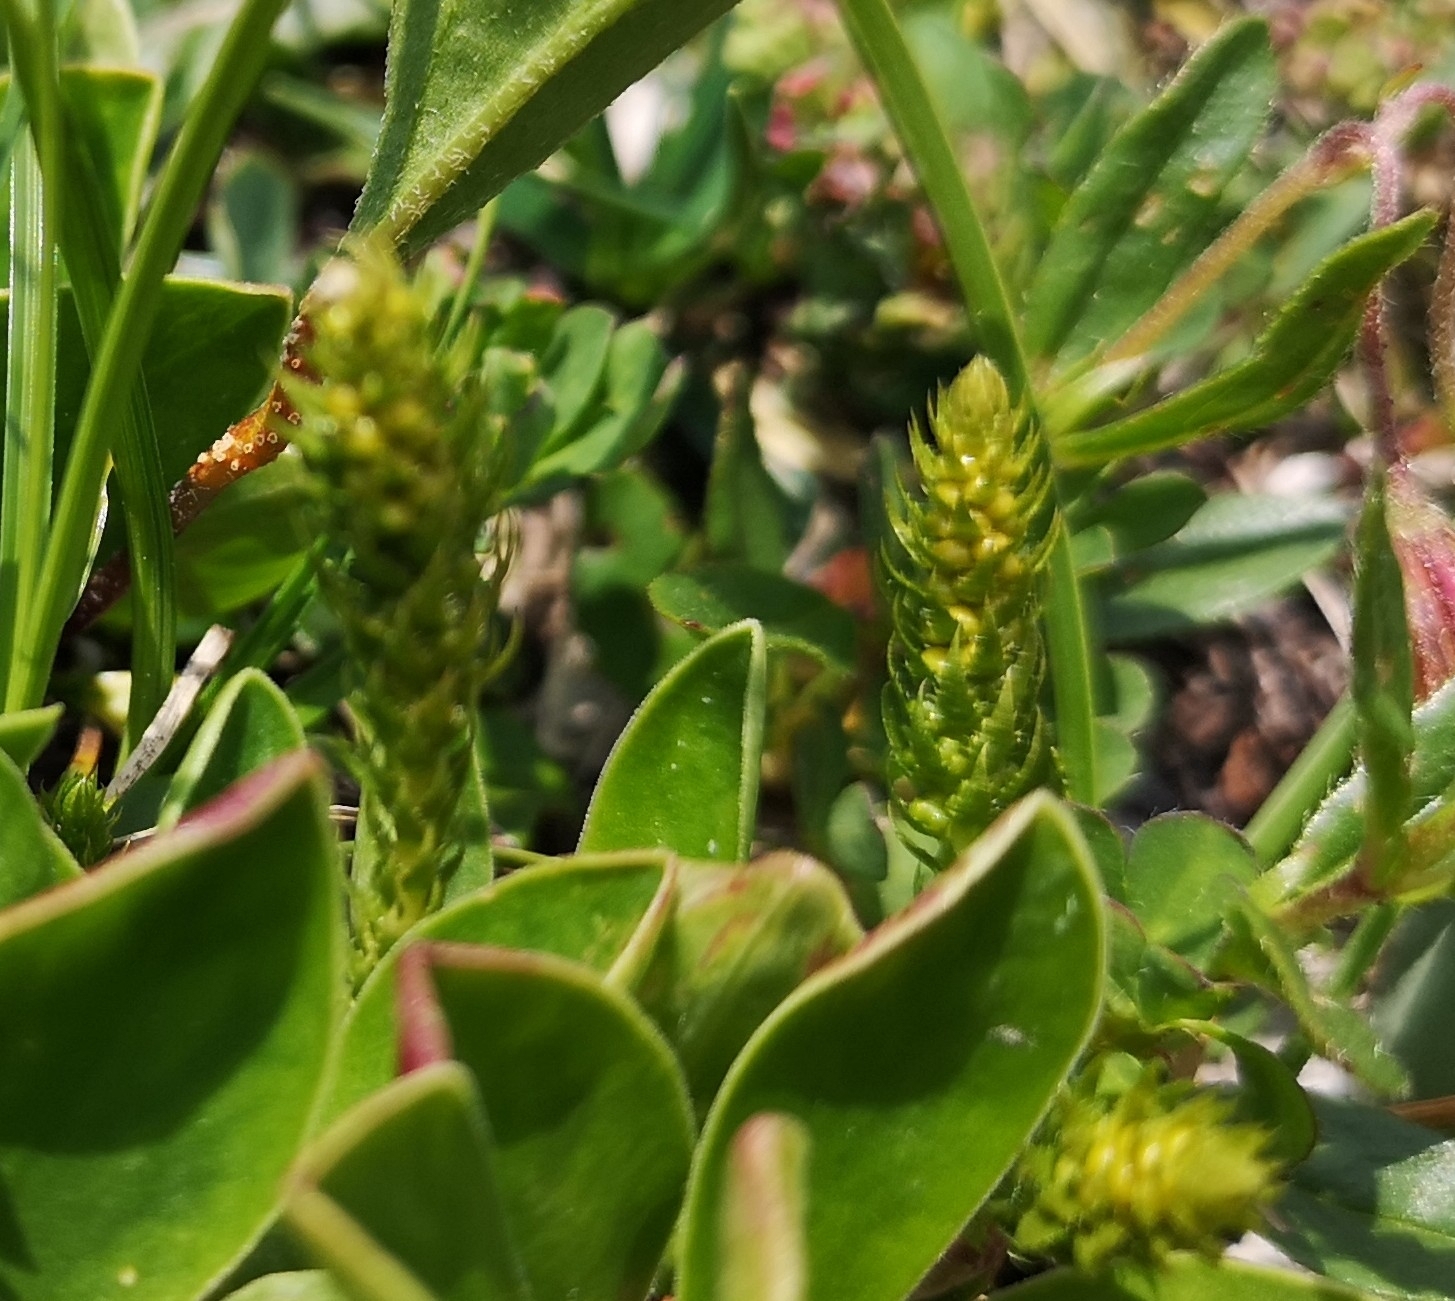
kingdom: Plantae
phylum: Tracheophyta
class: Lycopodiopsida
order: Selaginellales
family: Selaginellaceae
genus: Selaginella
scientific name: Selaginella selaginoides
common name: Prickly mountain-moss
